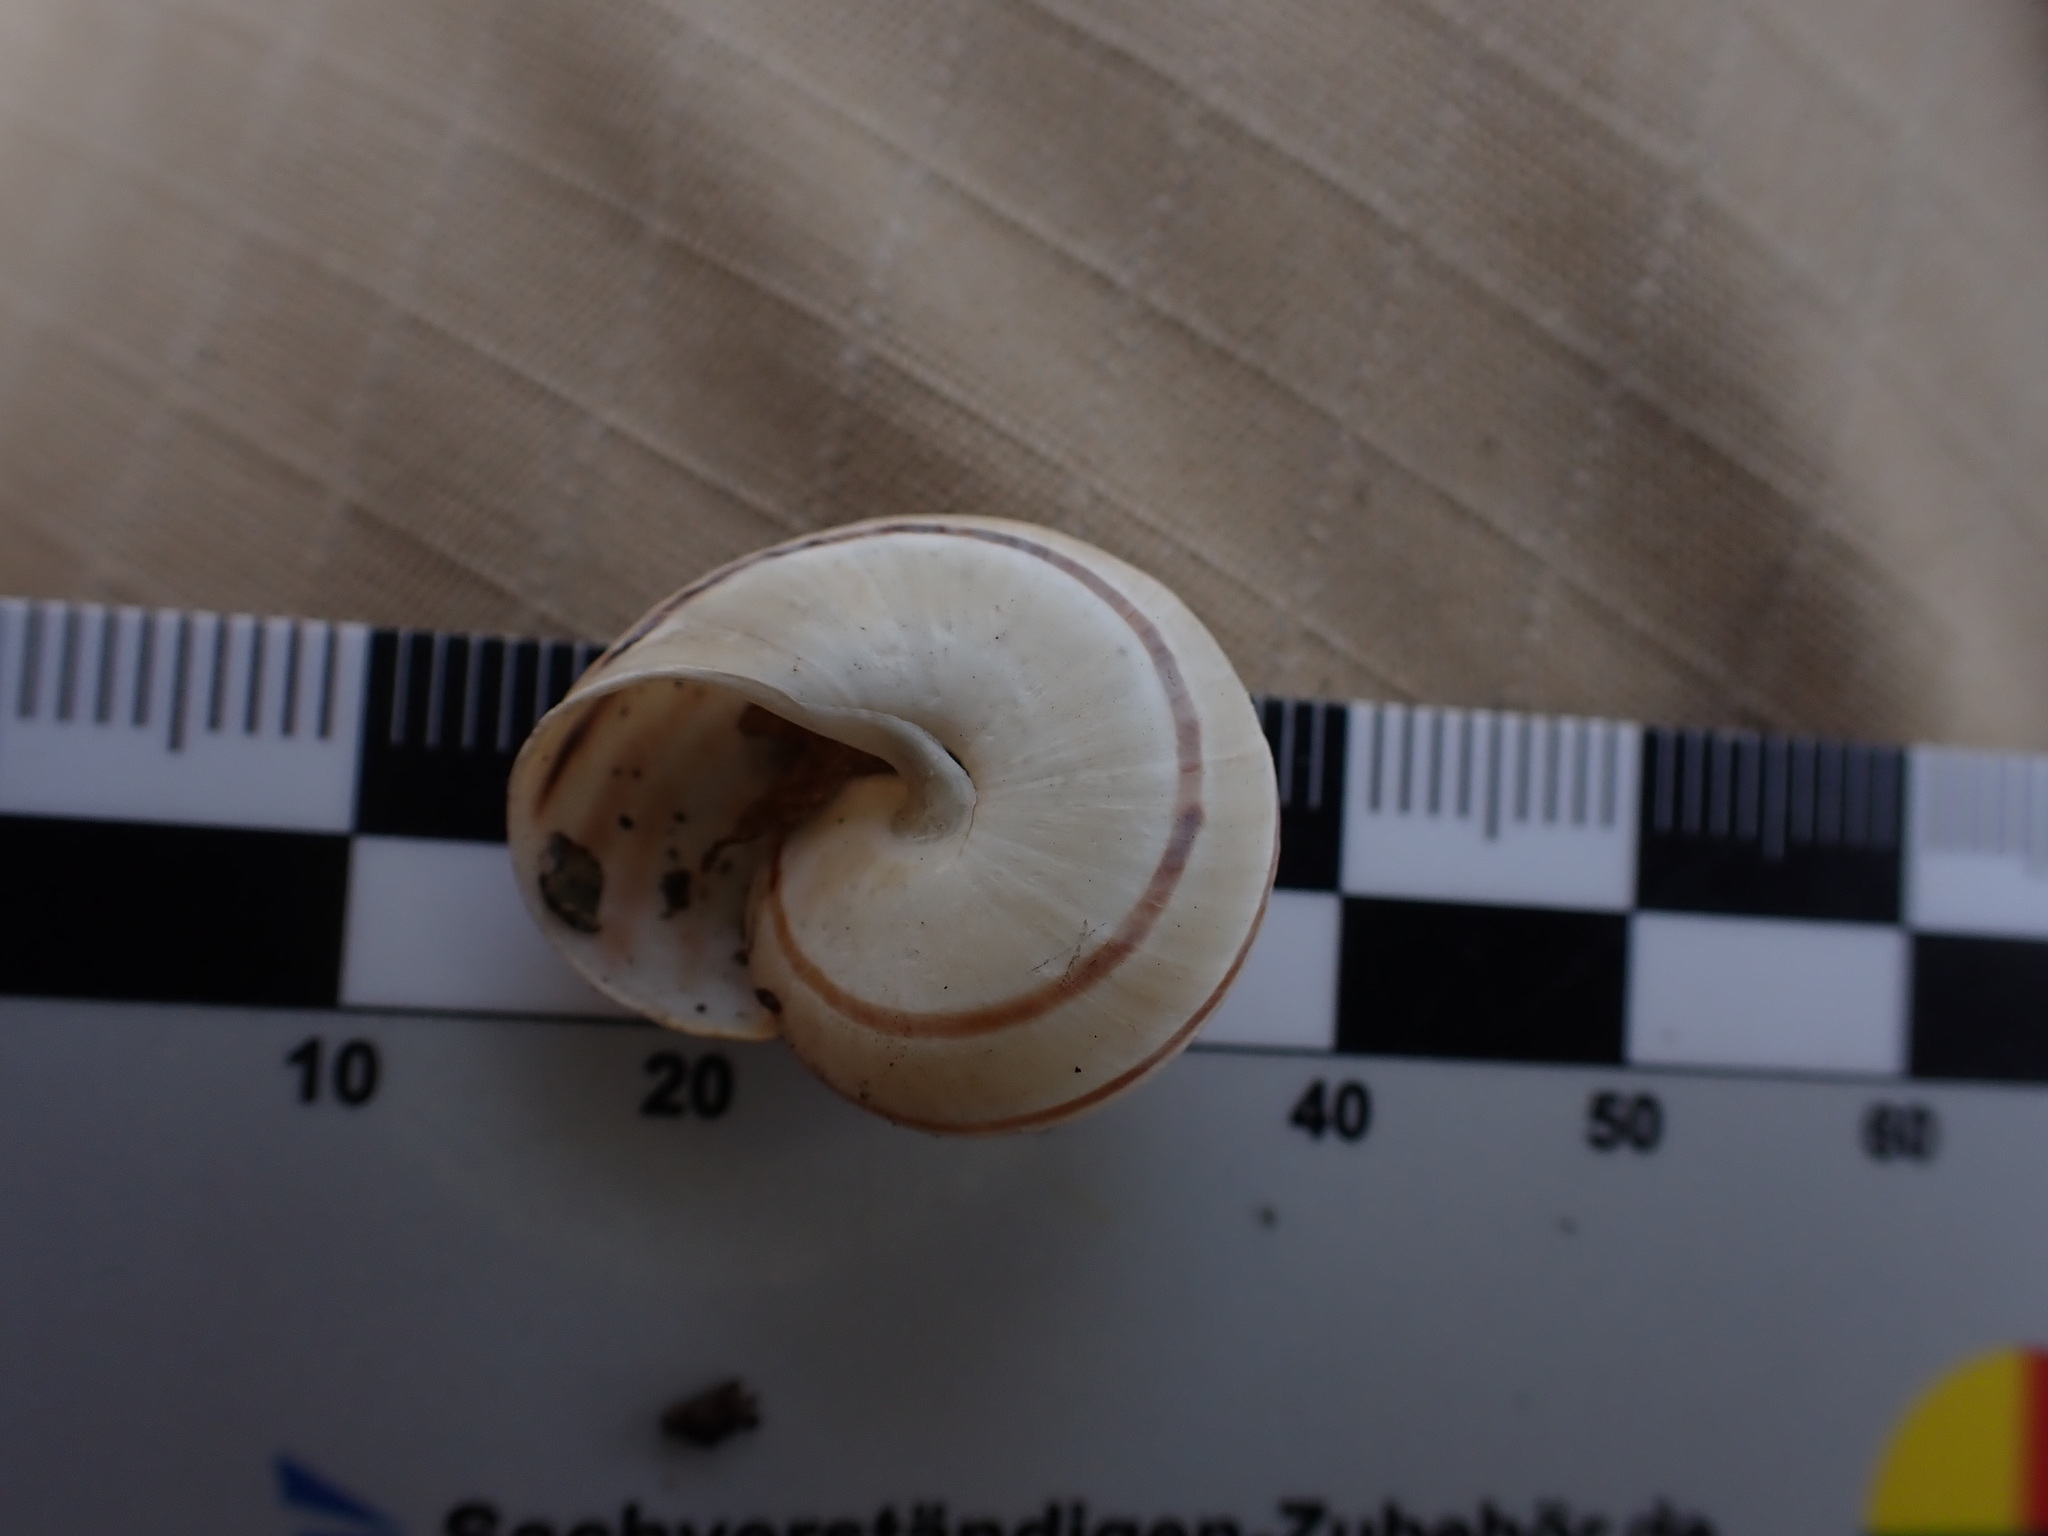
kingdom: Animalia
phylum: Mollusca
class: Gastropoda
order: Stylommatophora
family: Helicidae
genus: Pseudotachea
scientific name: Pseudotachea splendida
